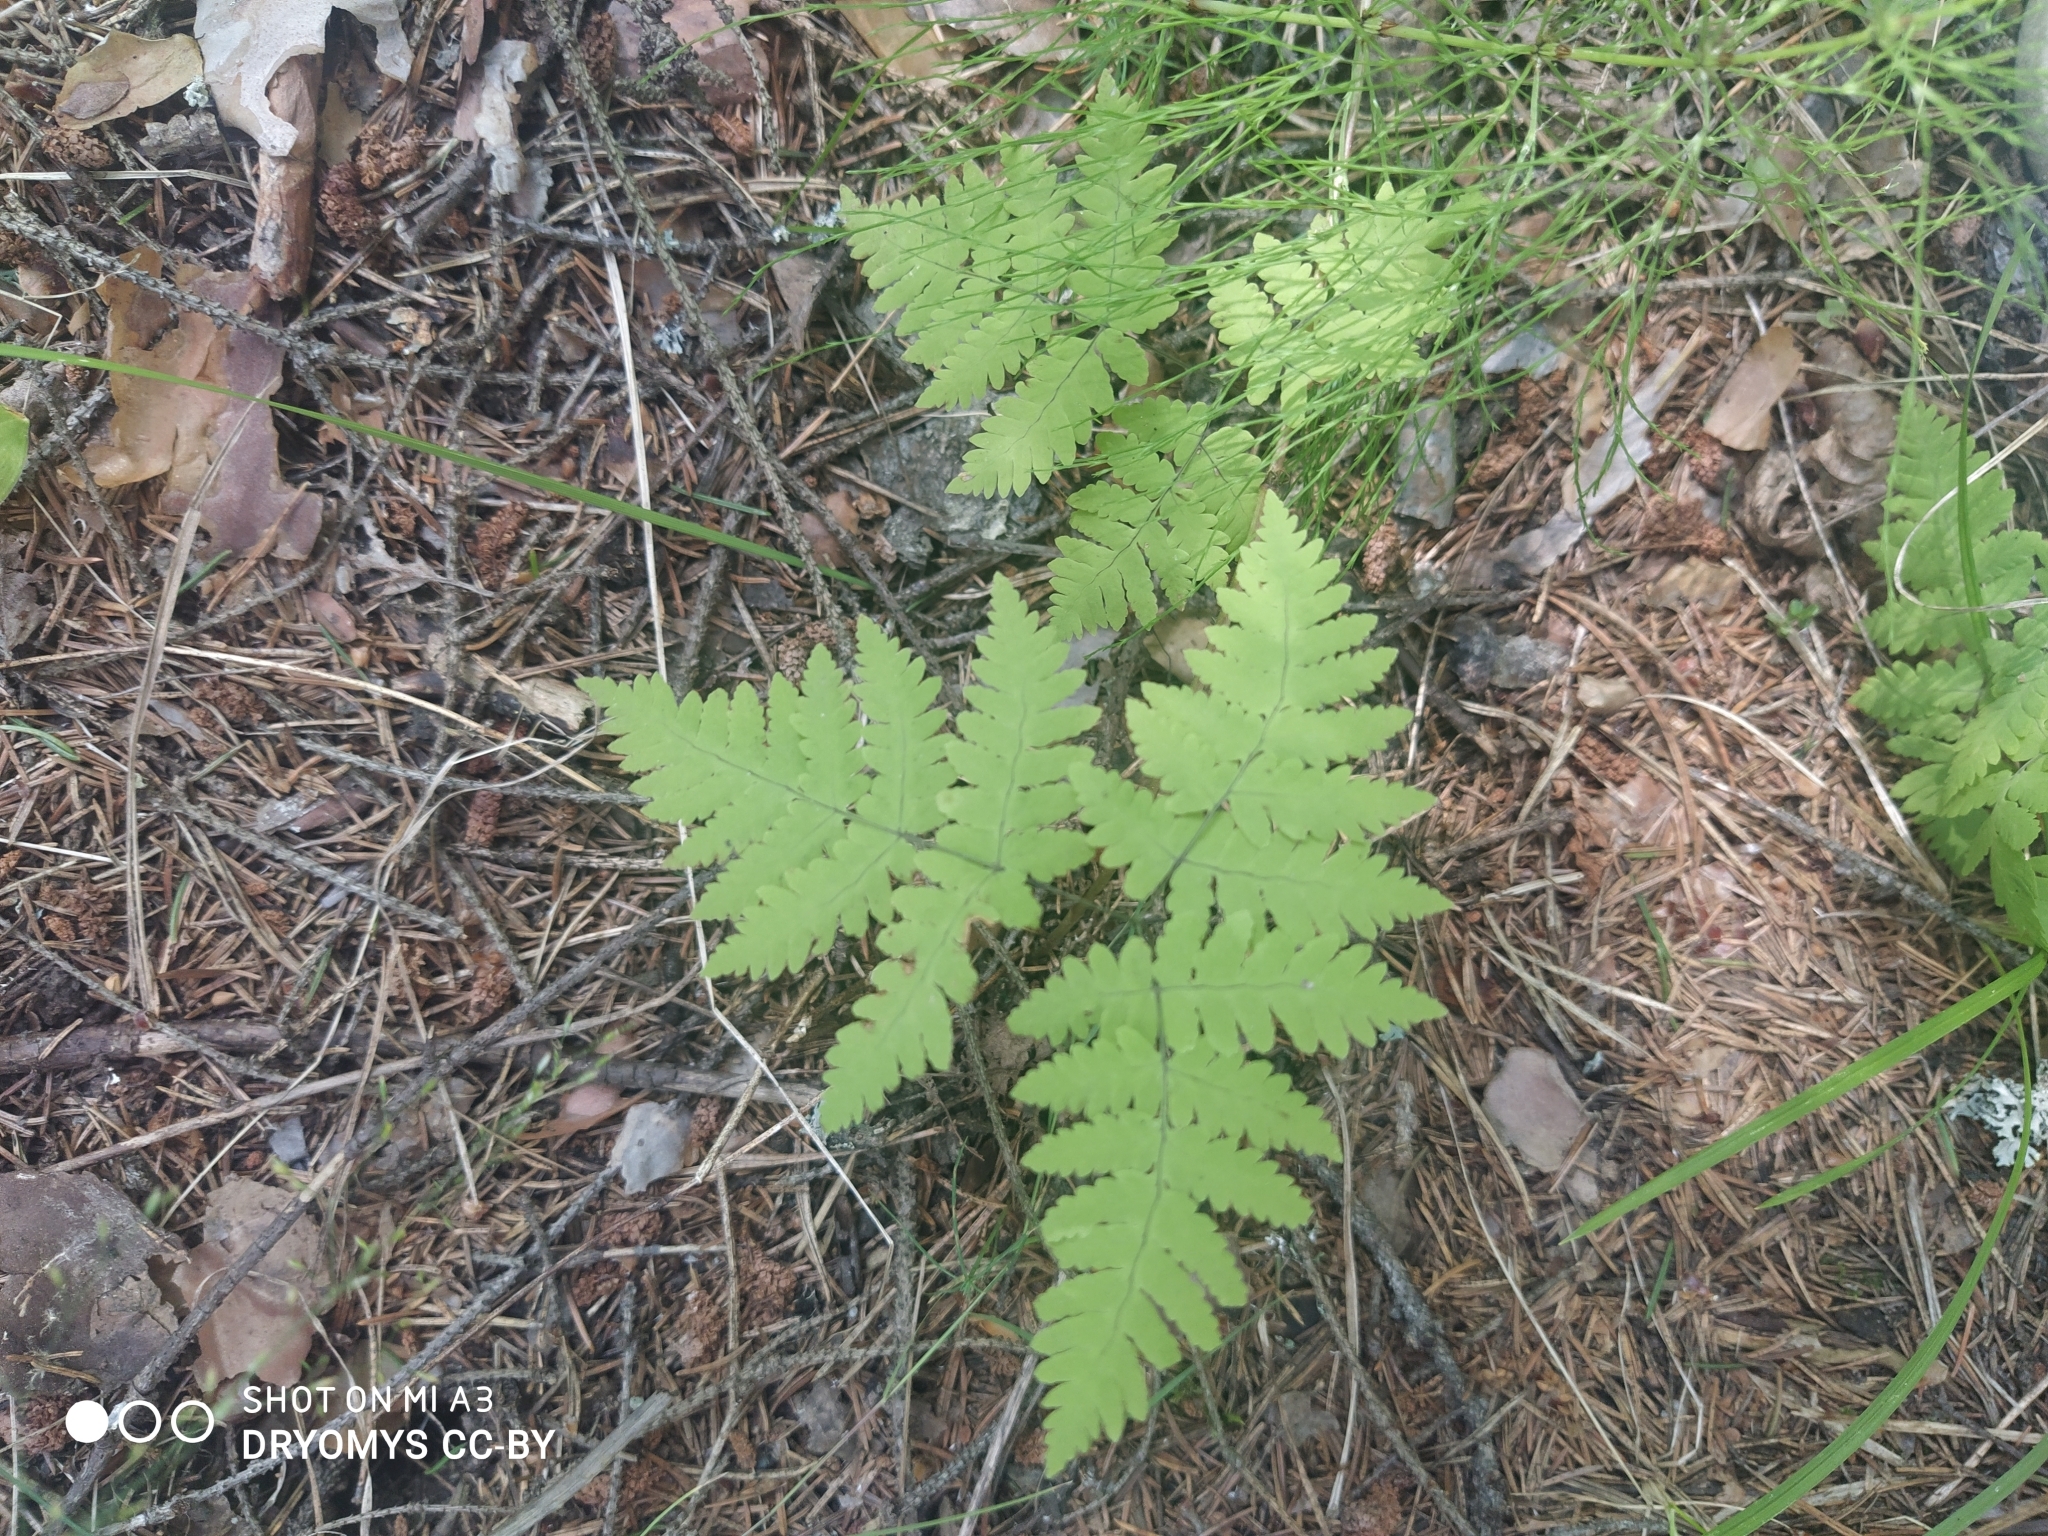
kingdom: Plantae
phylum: Tracheophyta
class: Polypodiopsida
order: Polypodiales
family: Cystopteridaceae
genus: Gymnocarpium
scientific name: Gymnocarpium dryopteris
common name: Oak fern
